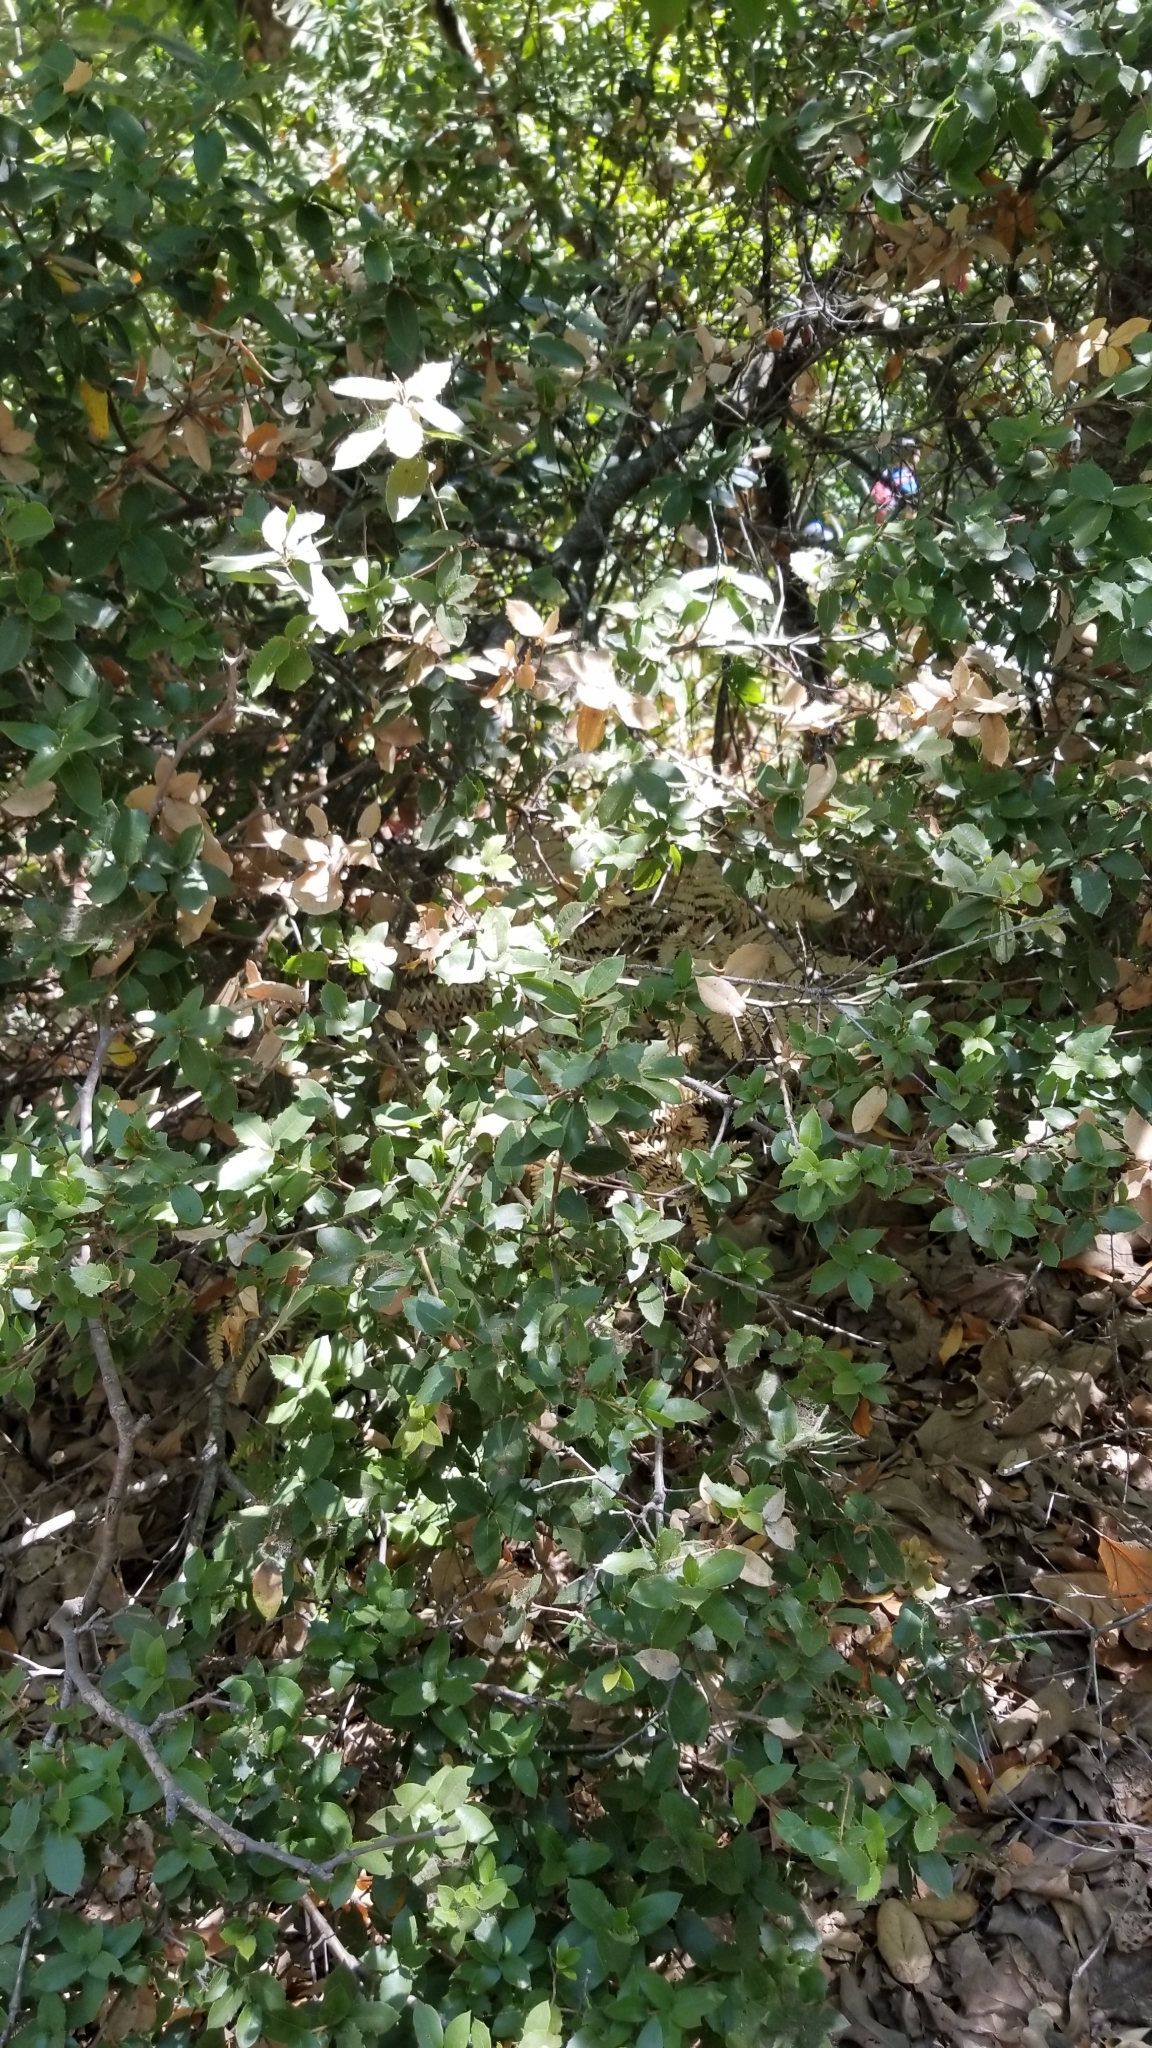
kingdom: Plantae
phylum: Tracheophyta
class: Magnoliopsida
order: Fagales
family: Fagaceae
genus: Quercus
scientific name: Quercus parvula
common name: Santa cruz island oak
